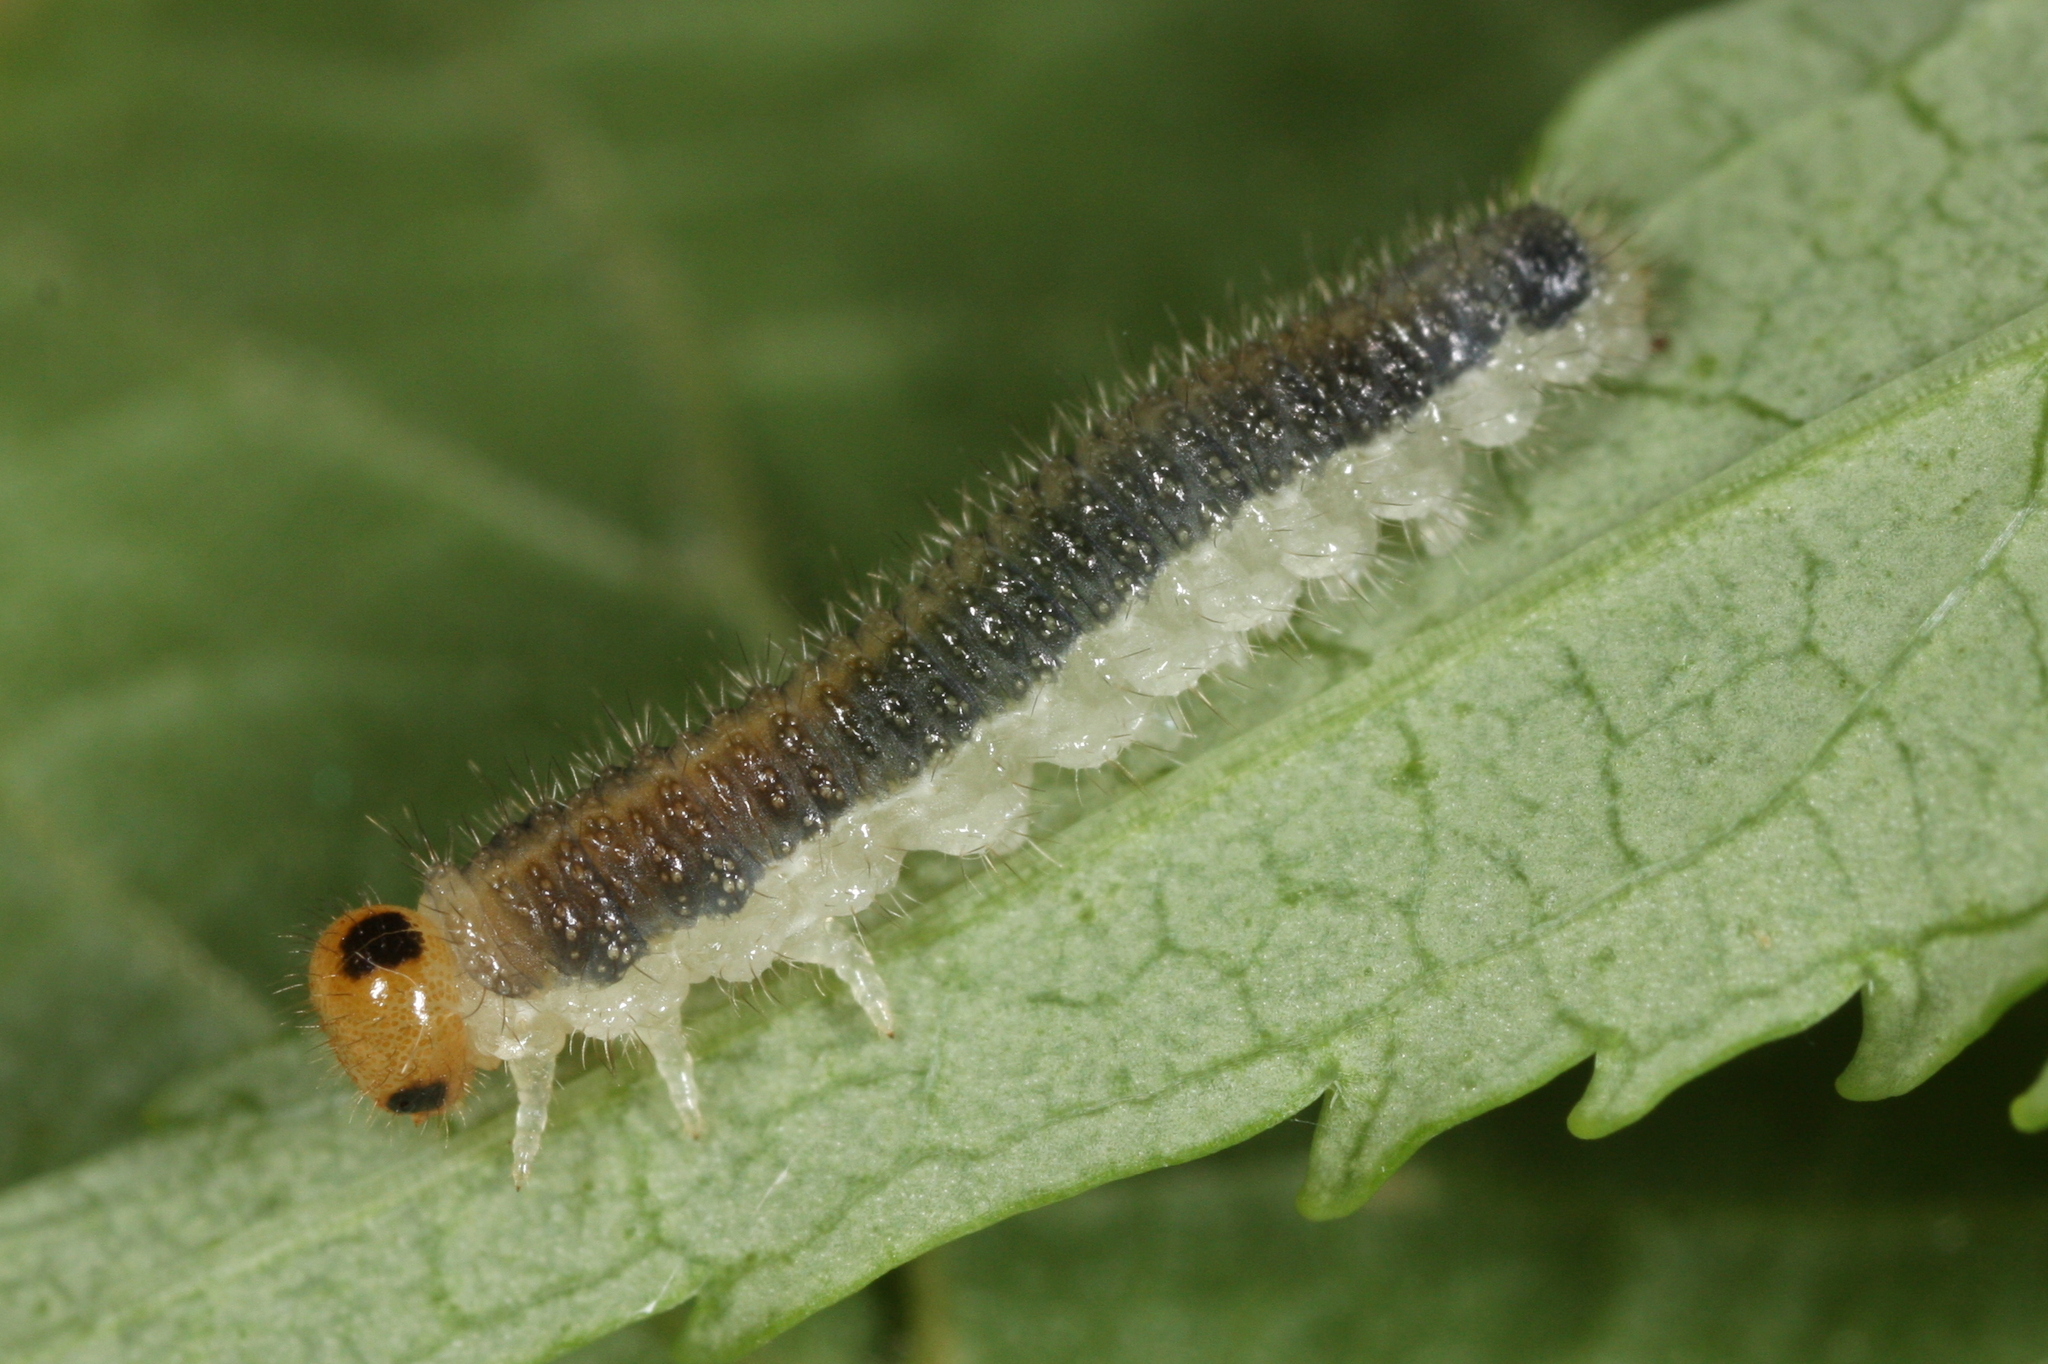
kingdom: Animalia
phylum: Arthropoda
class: Insecta
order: Hymenoptera
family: Tenthredinidae
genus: Cladius
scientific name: Cladius compressicornis
